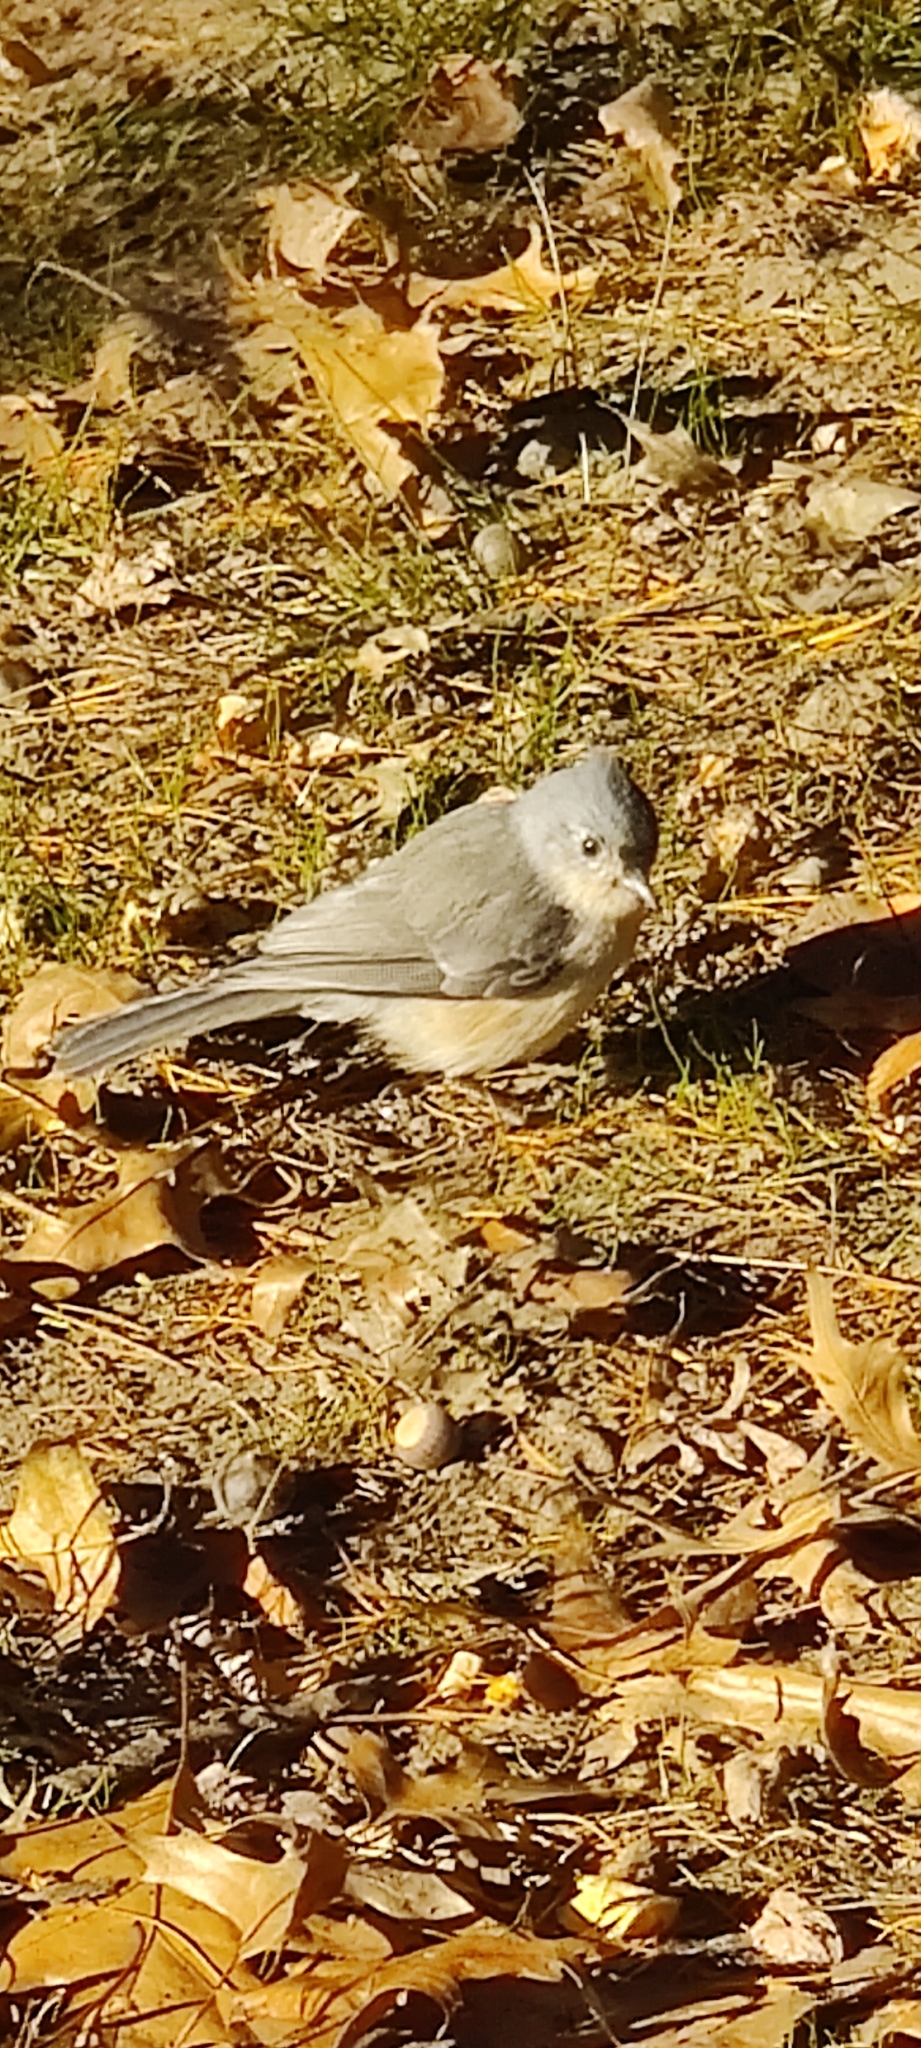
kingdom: Animalia
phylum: Chordata
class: Aves
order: Passeriformes
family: Paridae
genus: Baeolophus
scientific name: Baeolophus bicolor
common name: Tufted titmouse
